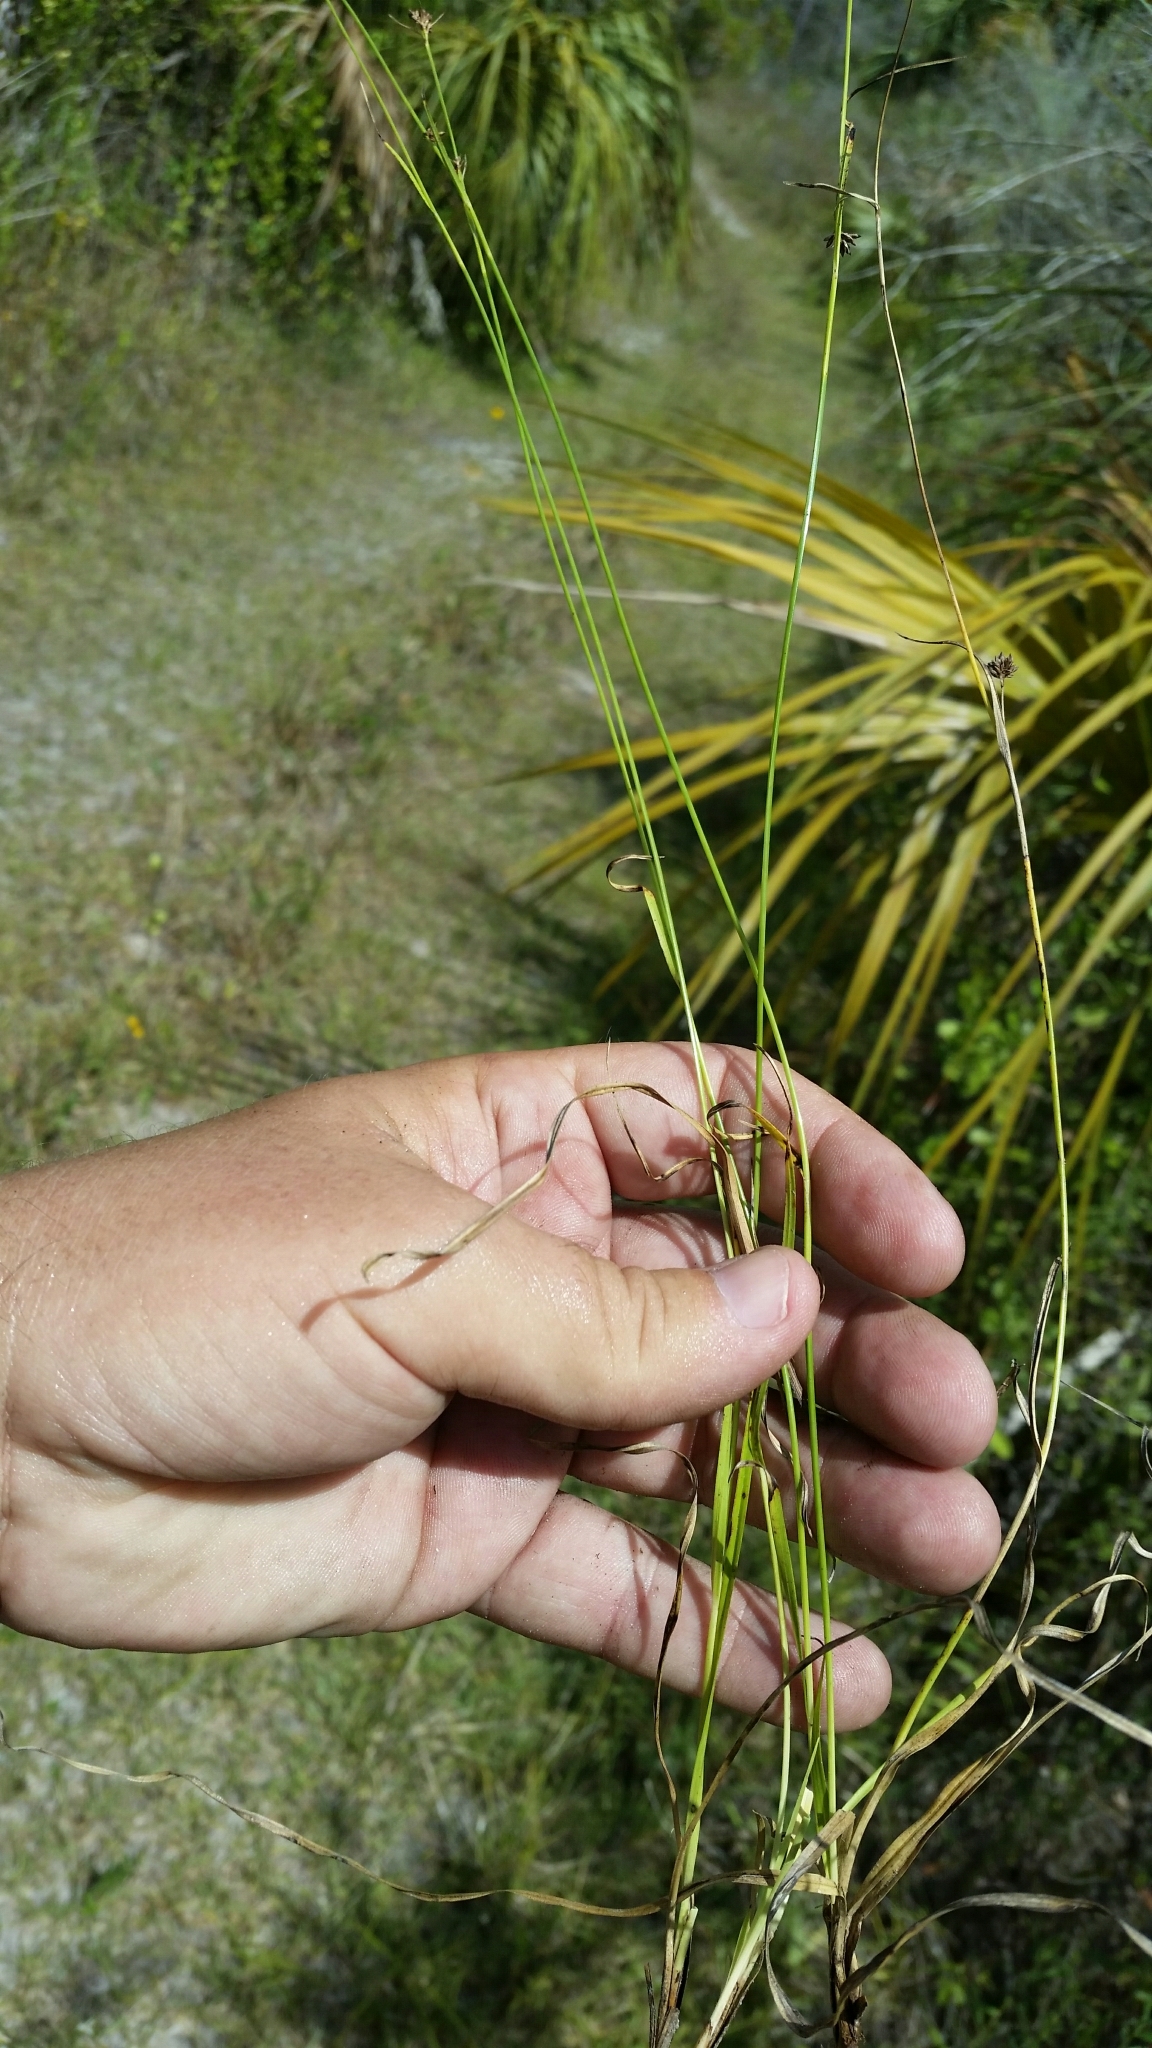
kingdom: Plantae
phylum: Tracheophyta
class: Liliopsida
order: Poales
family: Cyperaceae
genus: Rhynchospora
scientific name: Rhynchospora globularis
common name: Globe beaksedge
